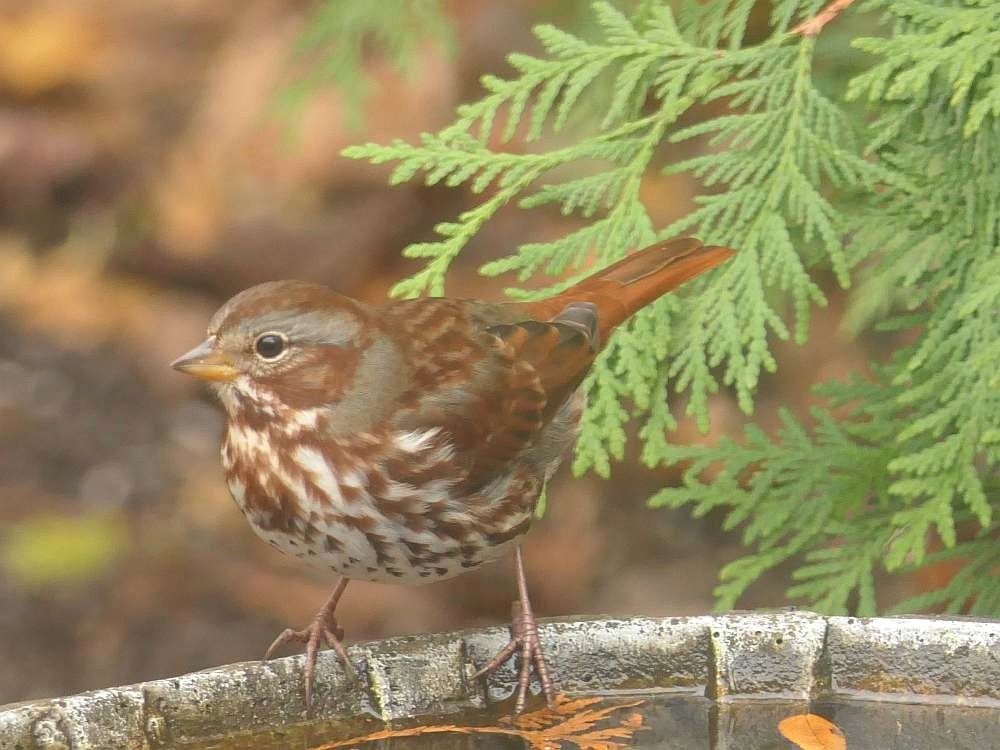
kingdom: Animalia
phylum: Chordata
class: Aves
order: Passeriformes
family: Passerellidae
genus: Passerella
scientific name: Passerella iliaca
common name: Fox sparrow
